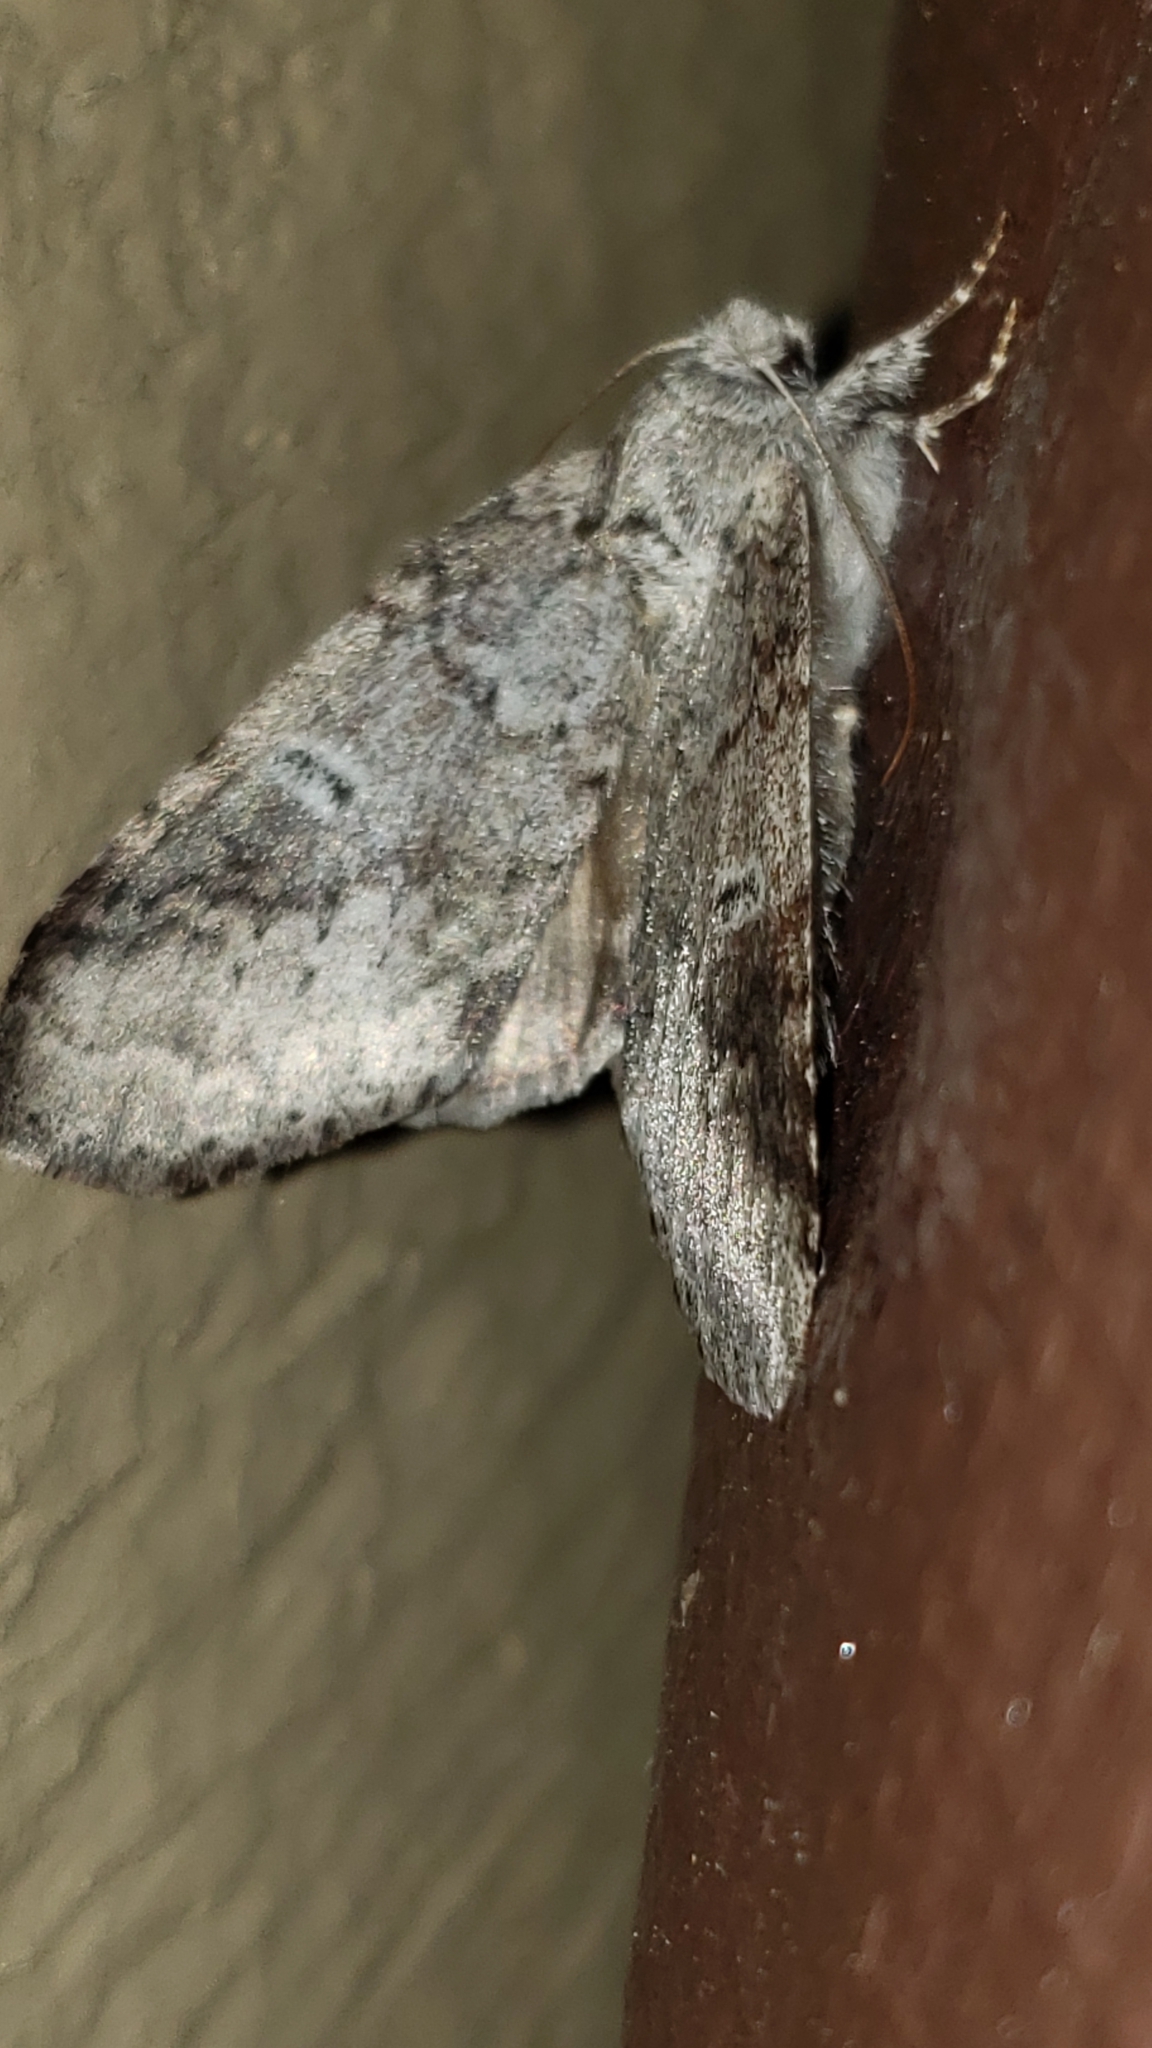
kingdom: Animalia
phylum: Arthropoda
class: Insecta
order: Lepidoptera
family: Notodontidae
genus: Lochmaeus
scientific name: Lochmaeus manteo
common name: Variable oakleaf caterpillar moth
